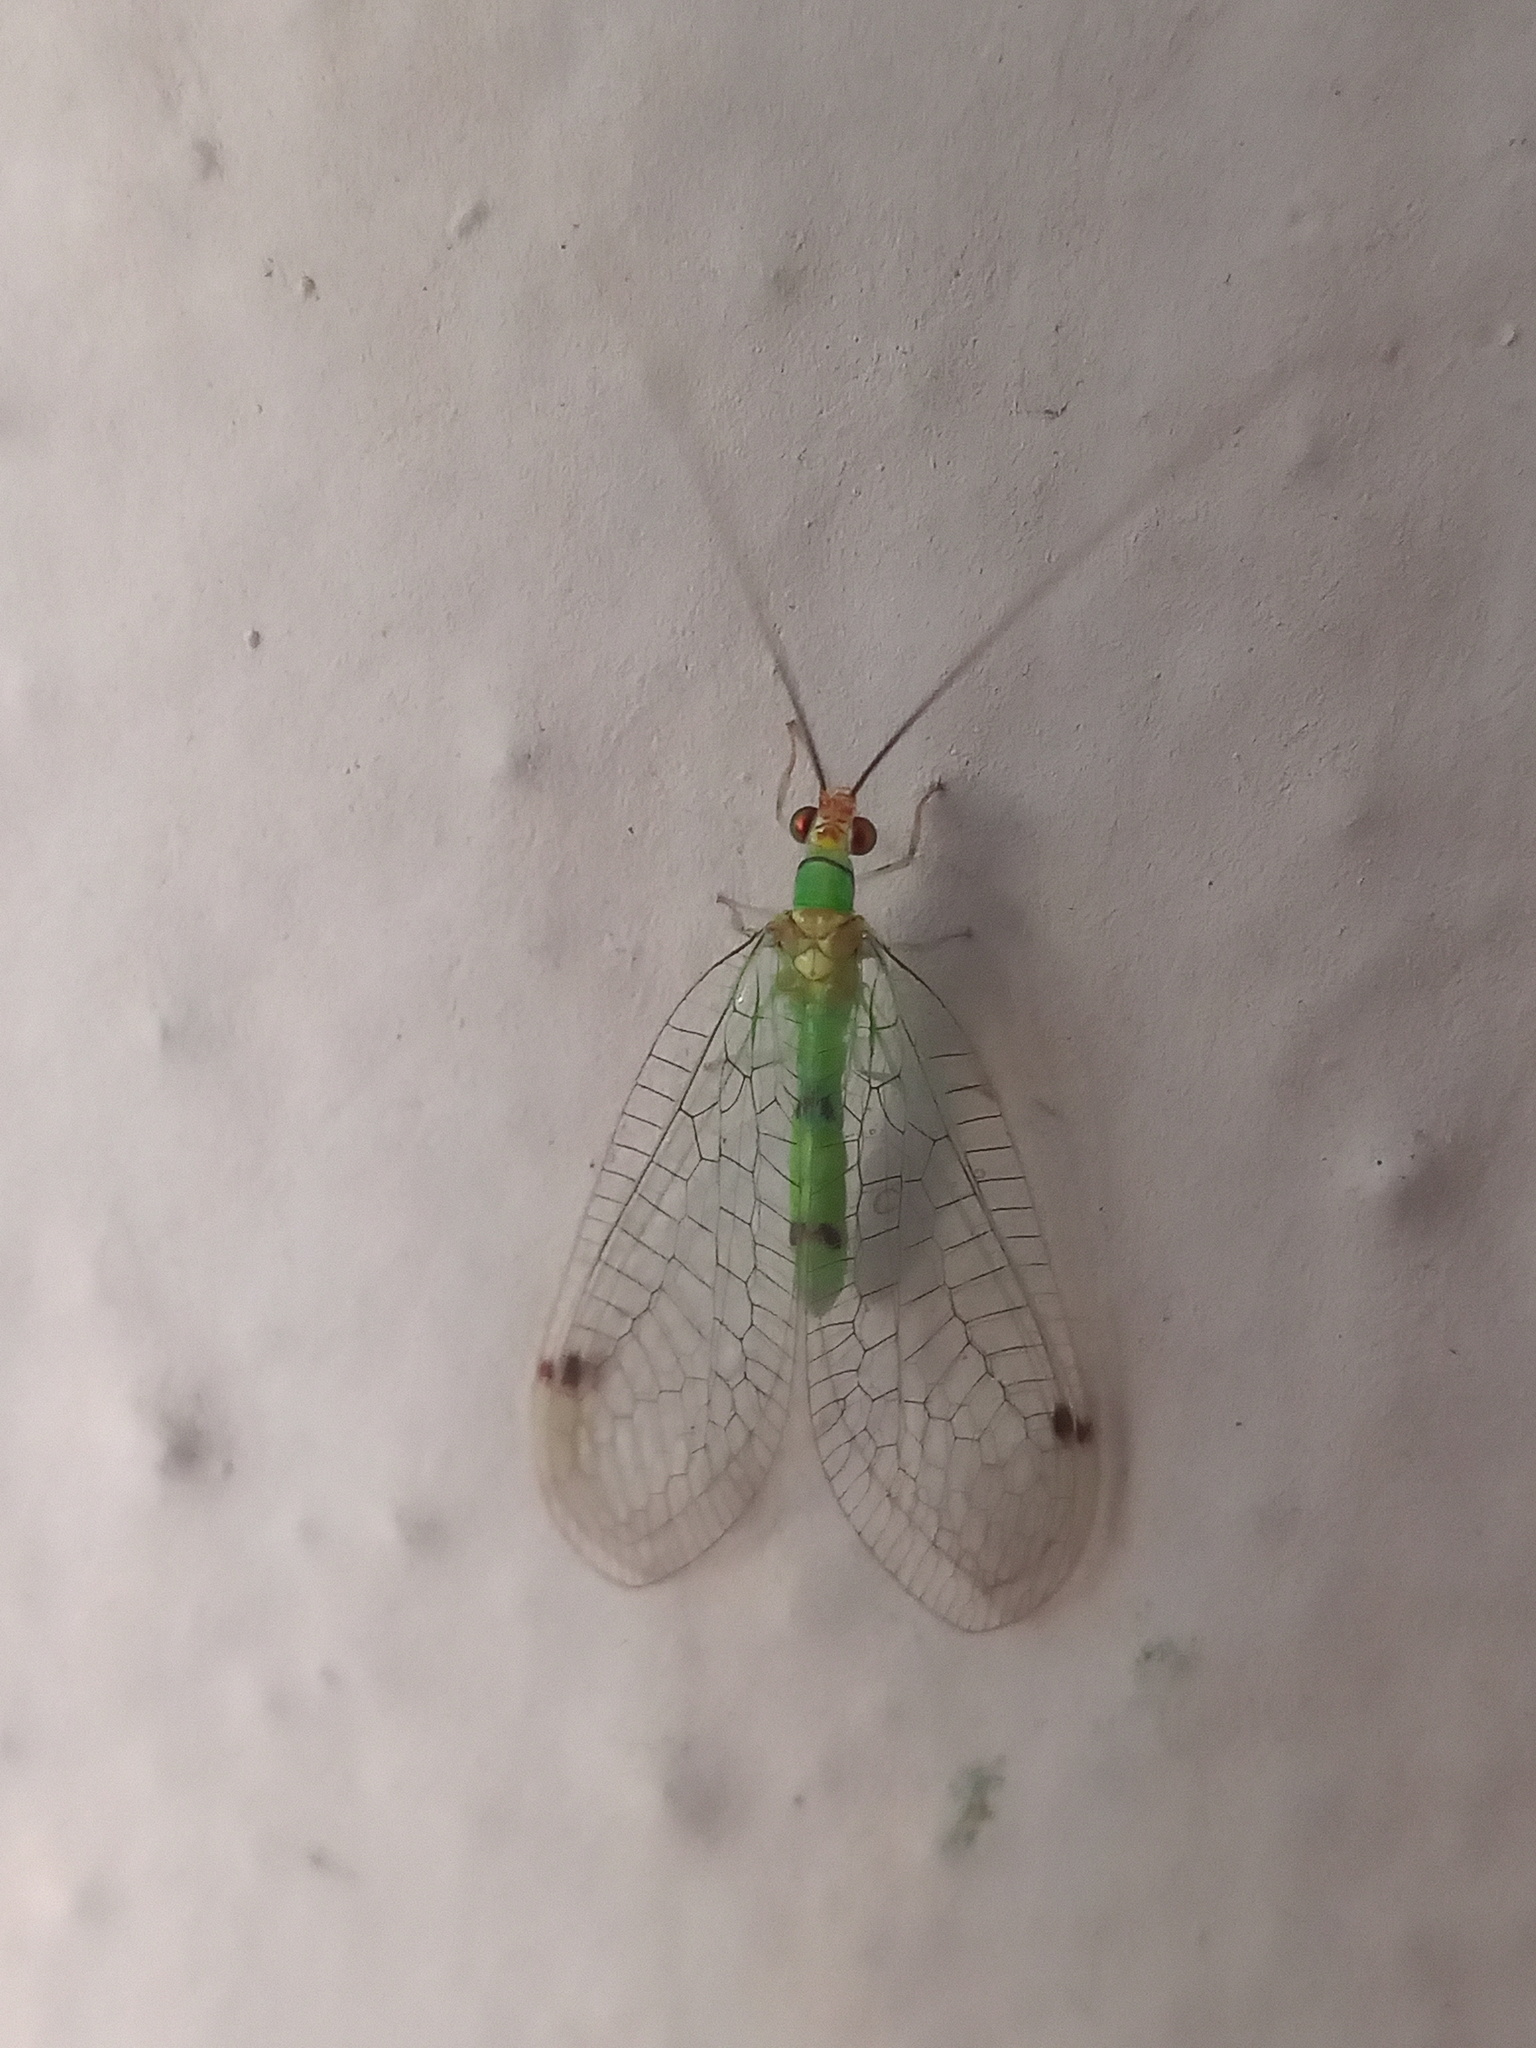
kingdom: Animalia
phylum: Arthropoda
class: Insecta
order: Neuroptera
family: Chrysopidae
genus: Leucochrysa
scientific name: Leucochrysa explorata
